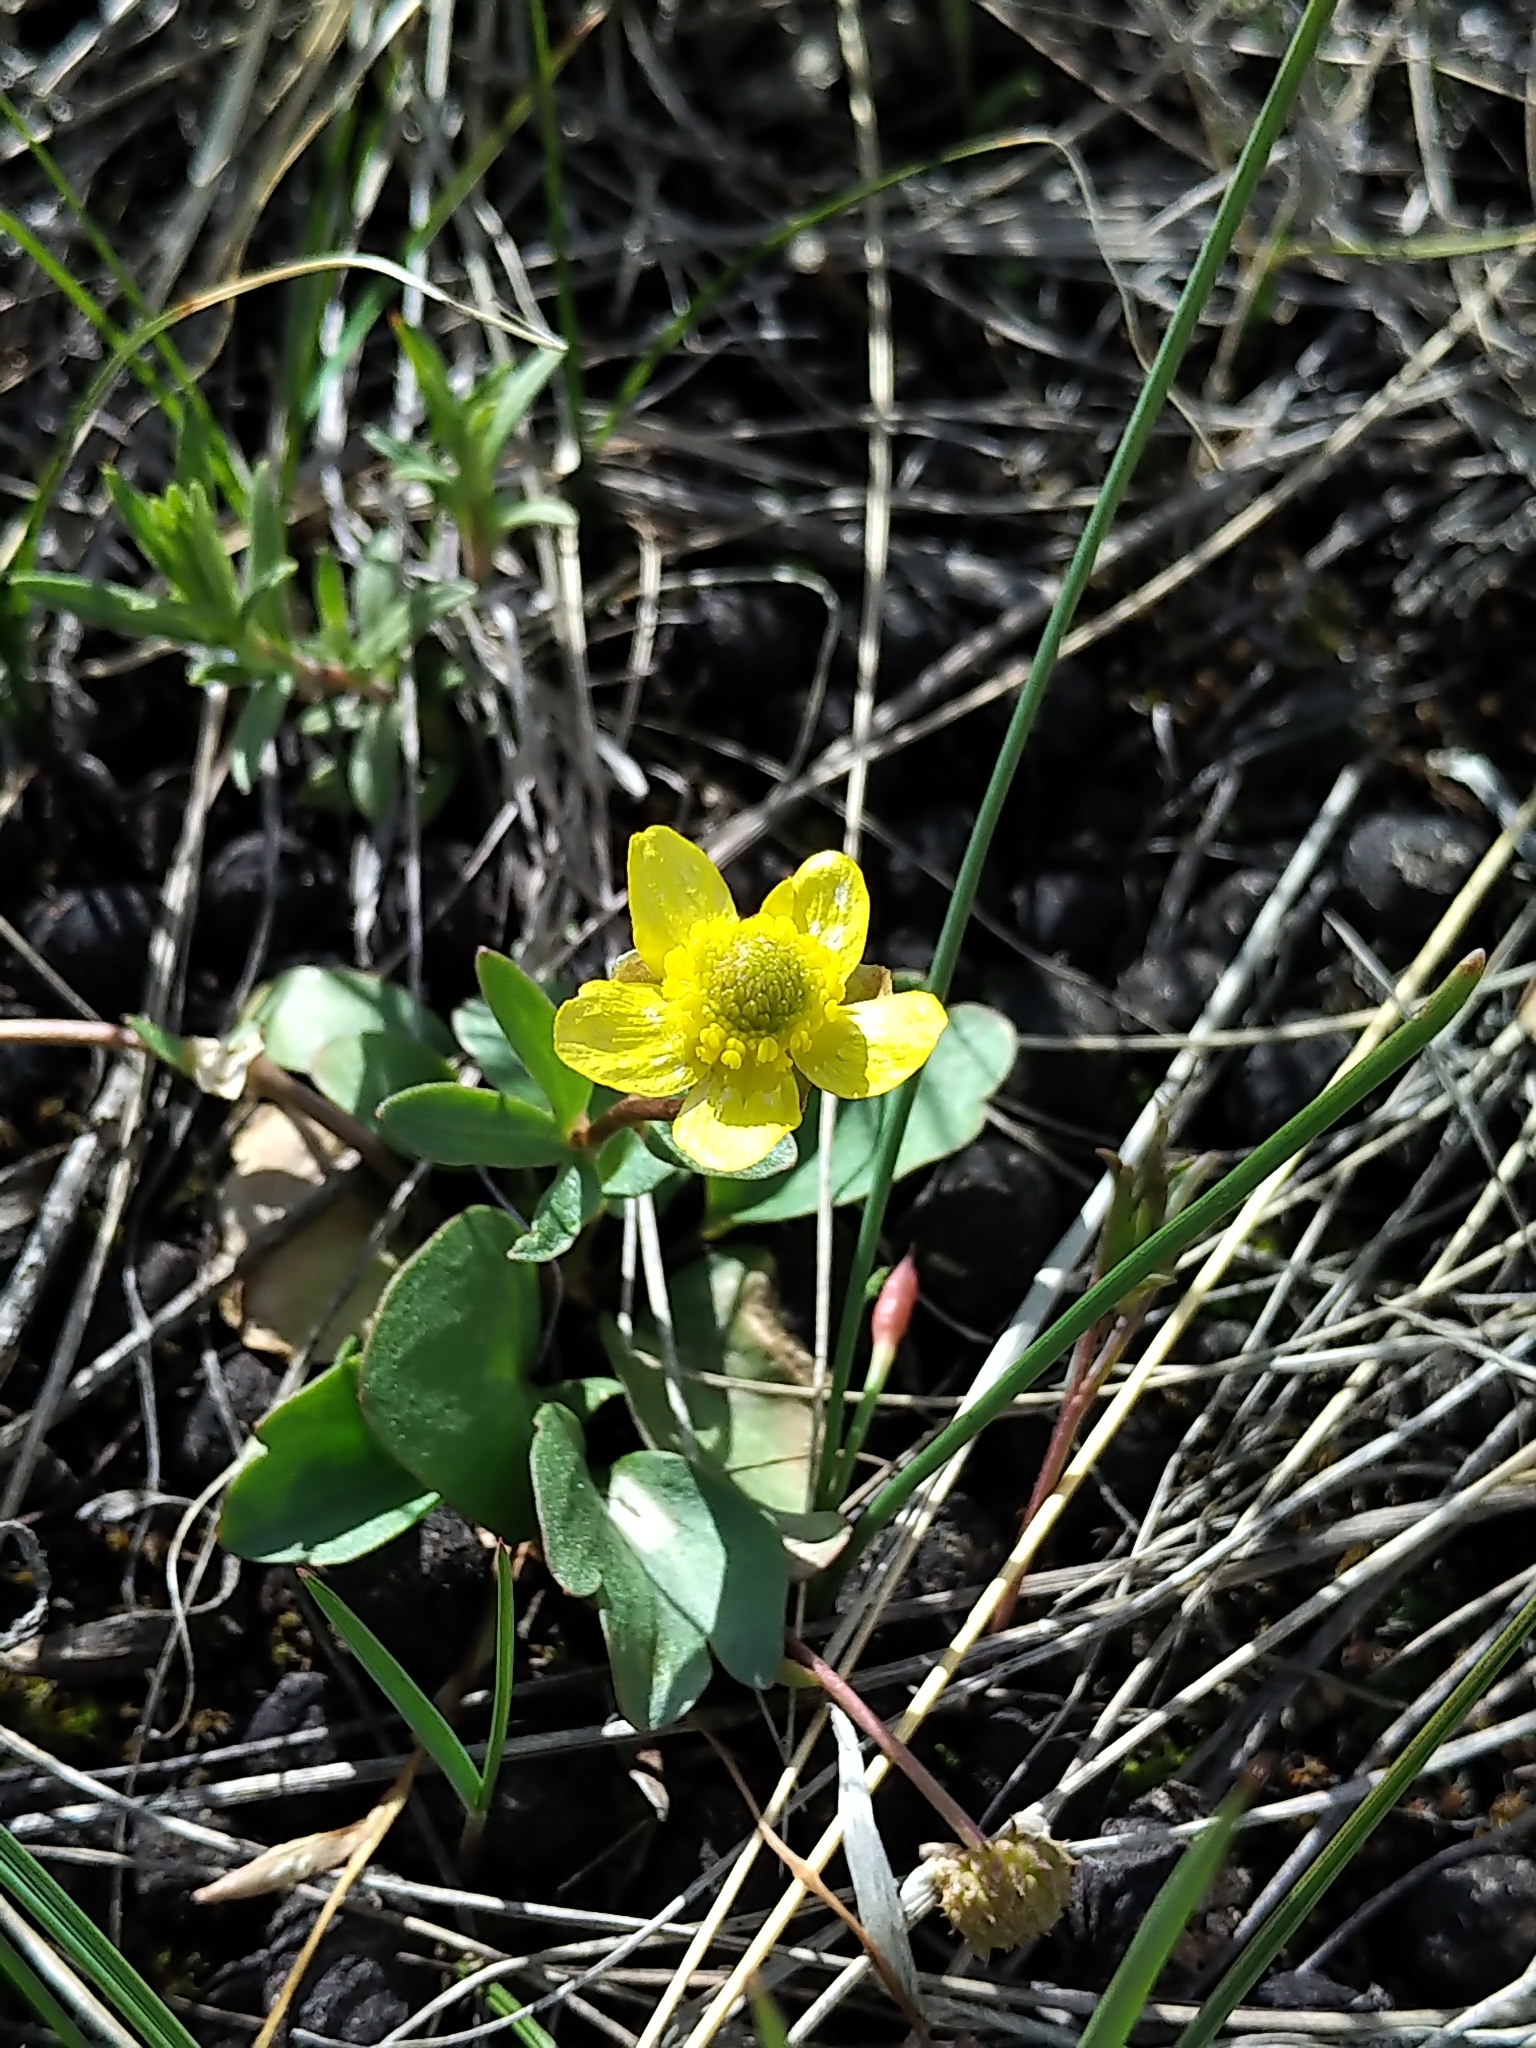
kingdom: Plantae
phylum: Tracheophyta
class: Magnoliopsida
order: Ranunculales
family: Ranunculaceae
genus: Ranunculus
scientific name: Ranunculus glaberrimus
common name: Sagebrush buttercup
